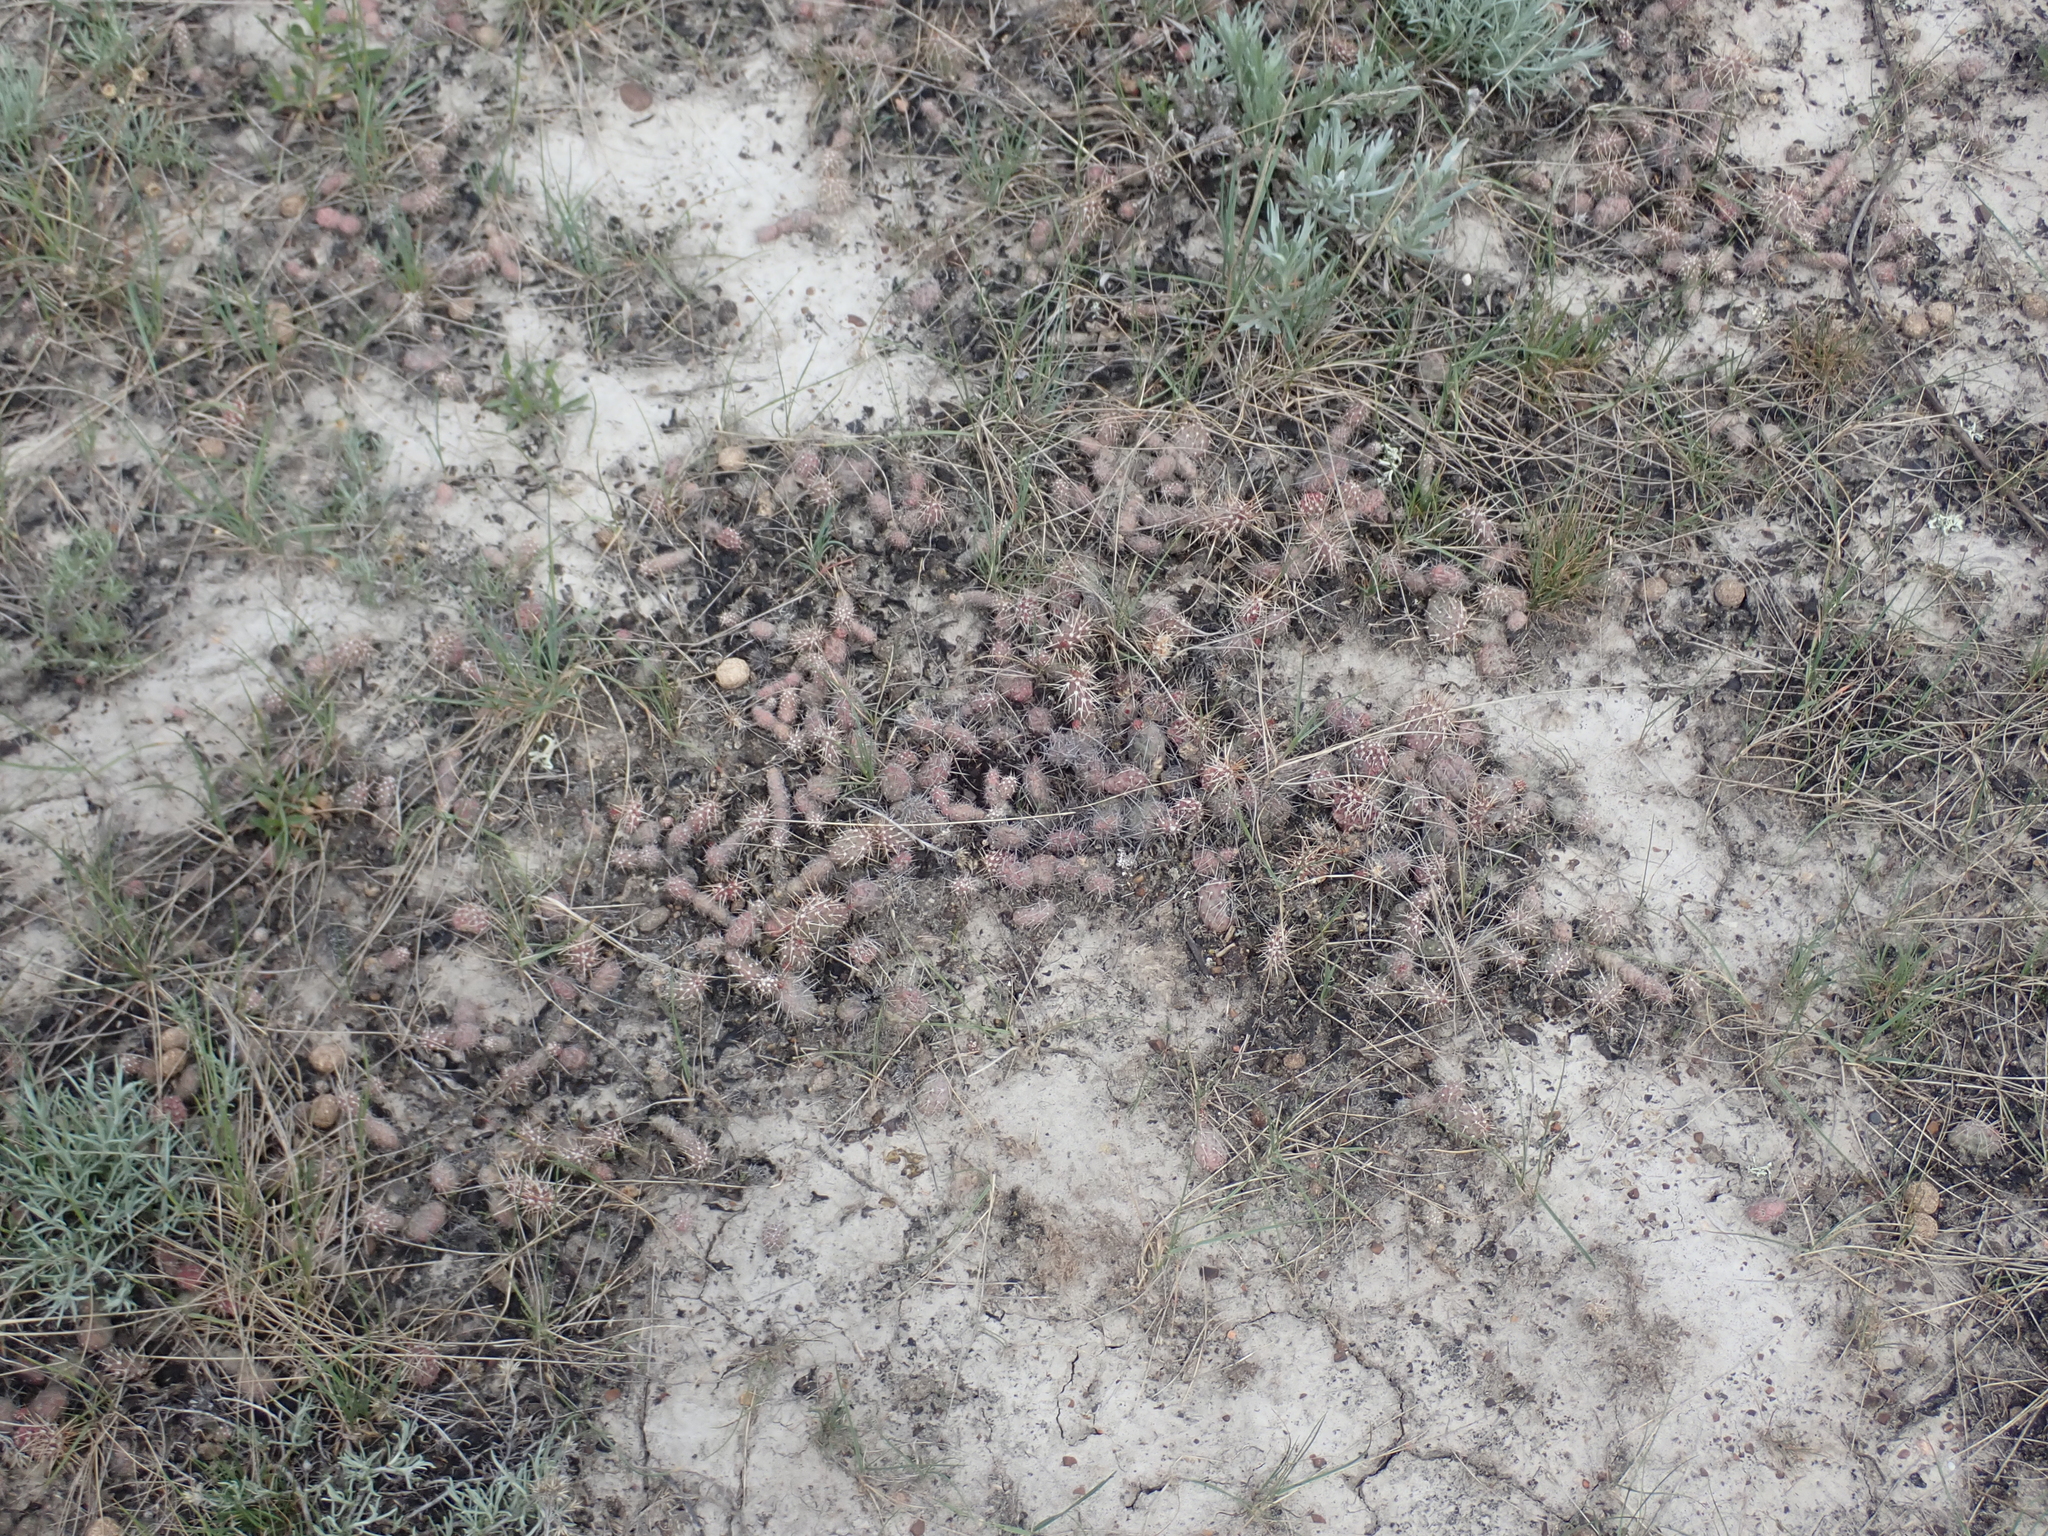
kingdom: Plantae
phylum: Tracheophyta
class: Magnoliopsida
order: Caryophyllales
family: Cactaceae
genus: Opuntia
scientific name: Opuntia fragilis
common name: Brittle cactus
